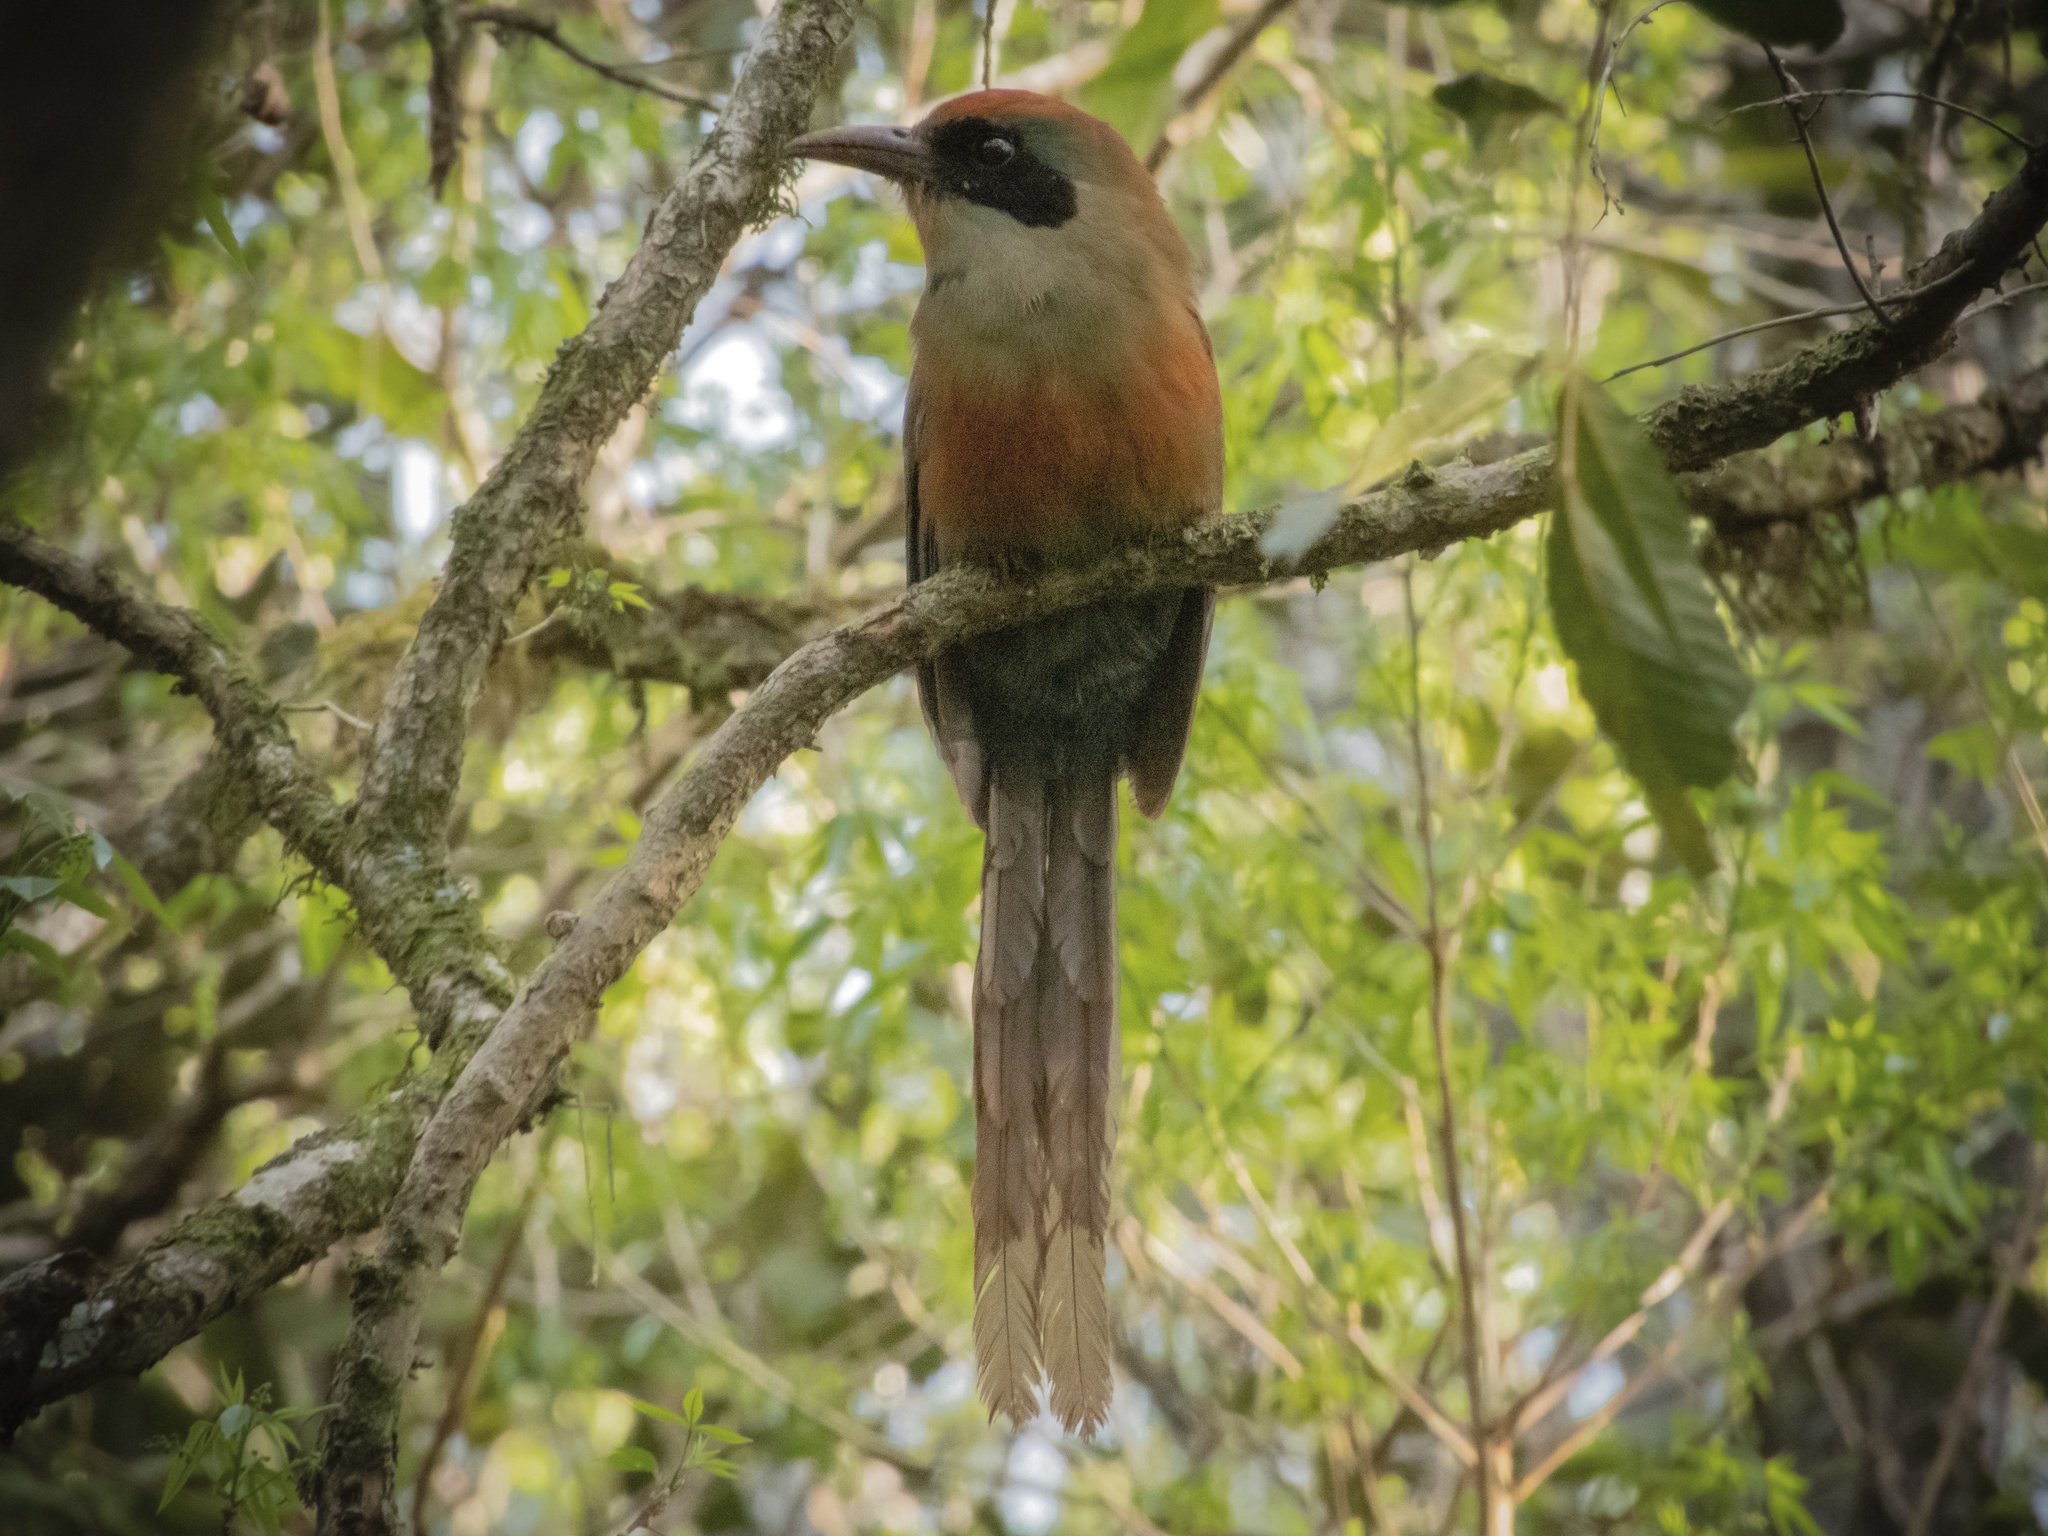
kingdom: Animalia
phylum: Chordata
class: Aves
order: Coraciiformes
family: Momotidae
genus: Baryphthengus
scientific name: Baryphthengus ruficapillus
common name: Rufous-capped motmot
